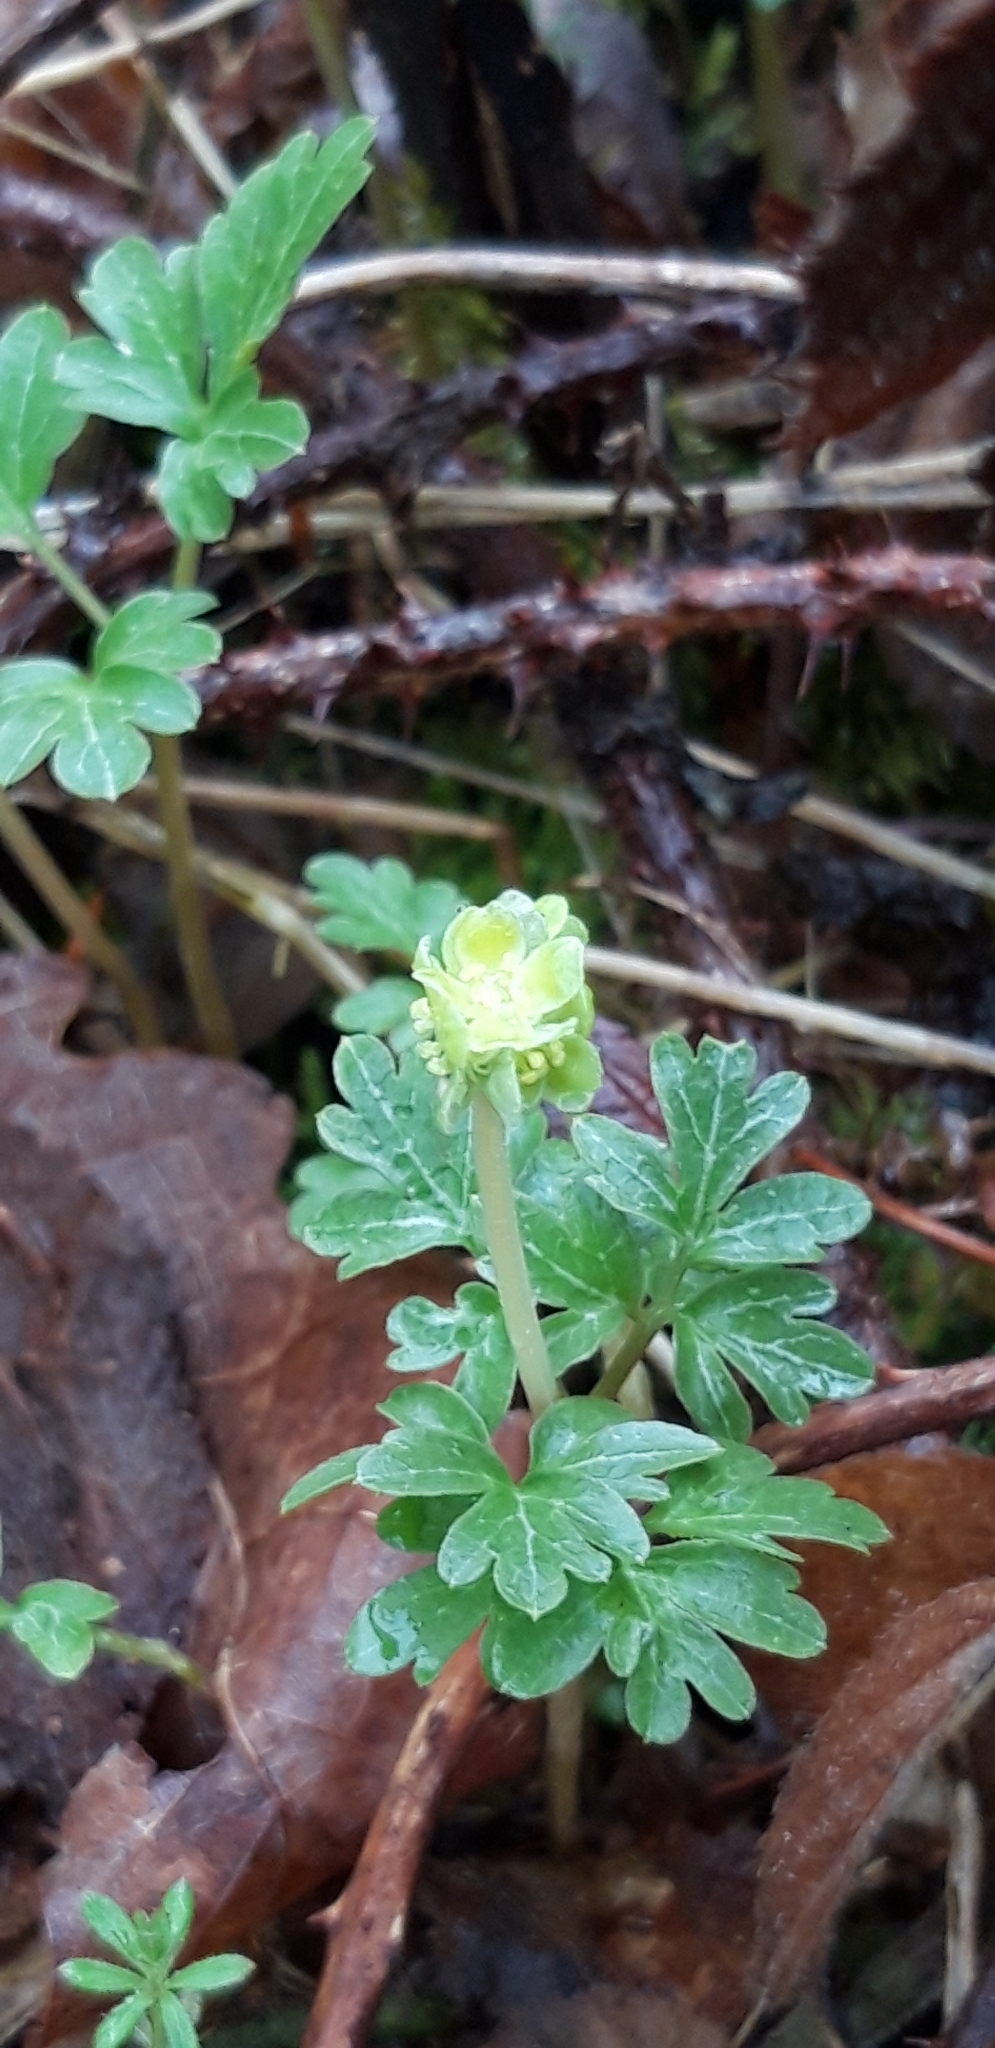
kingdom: Plantae
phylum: Tracheophyta
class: Magnoliopsida
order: Dipsacales
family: Viburnaceae
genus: Adoxa
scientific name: Adoxa moschatellina
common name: Moschatel
